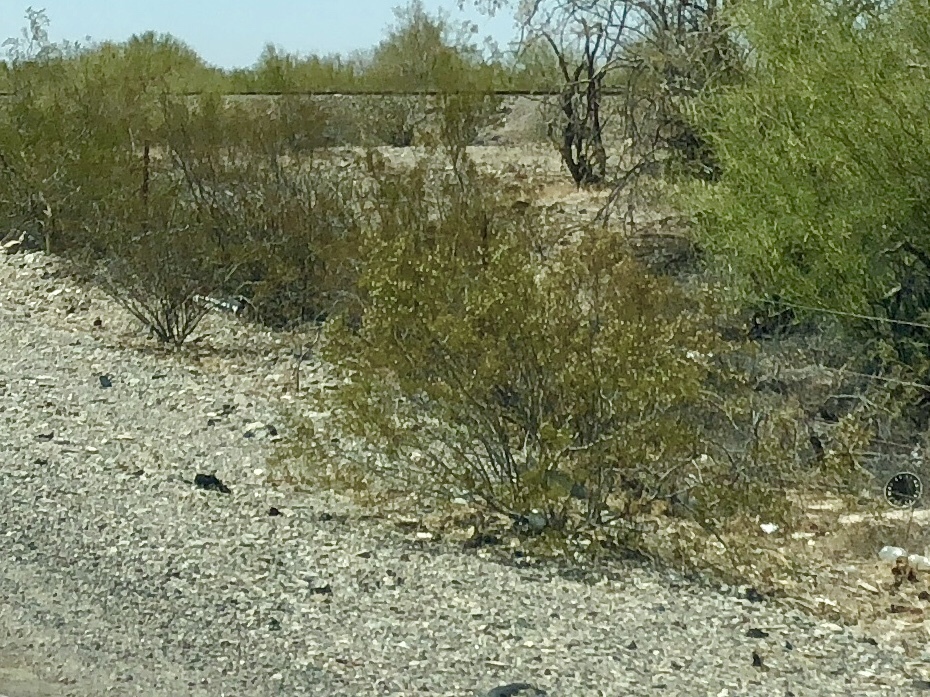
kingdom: Plantae
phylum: Tracheophyta
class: Magnoliopsida
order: Zygophyllales
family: Zygophyllaceae
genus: Larrea
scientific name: Larrea tridentata
